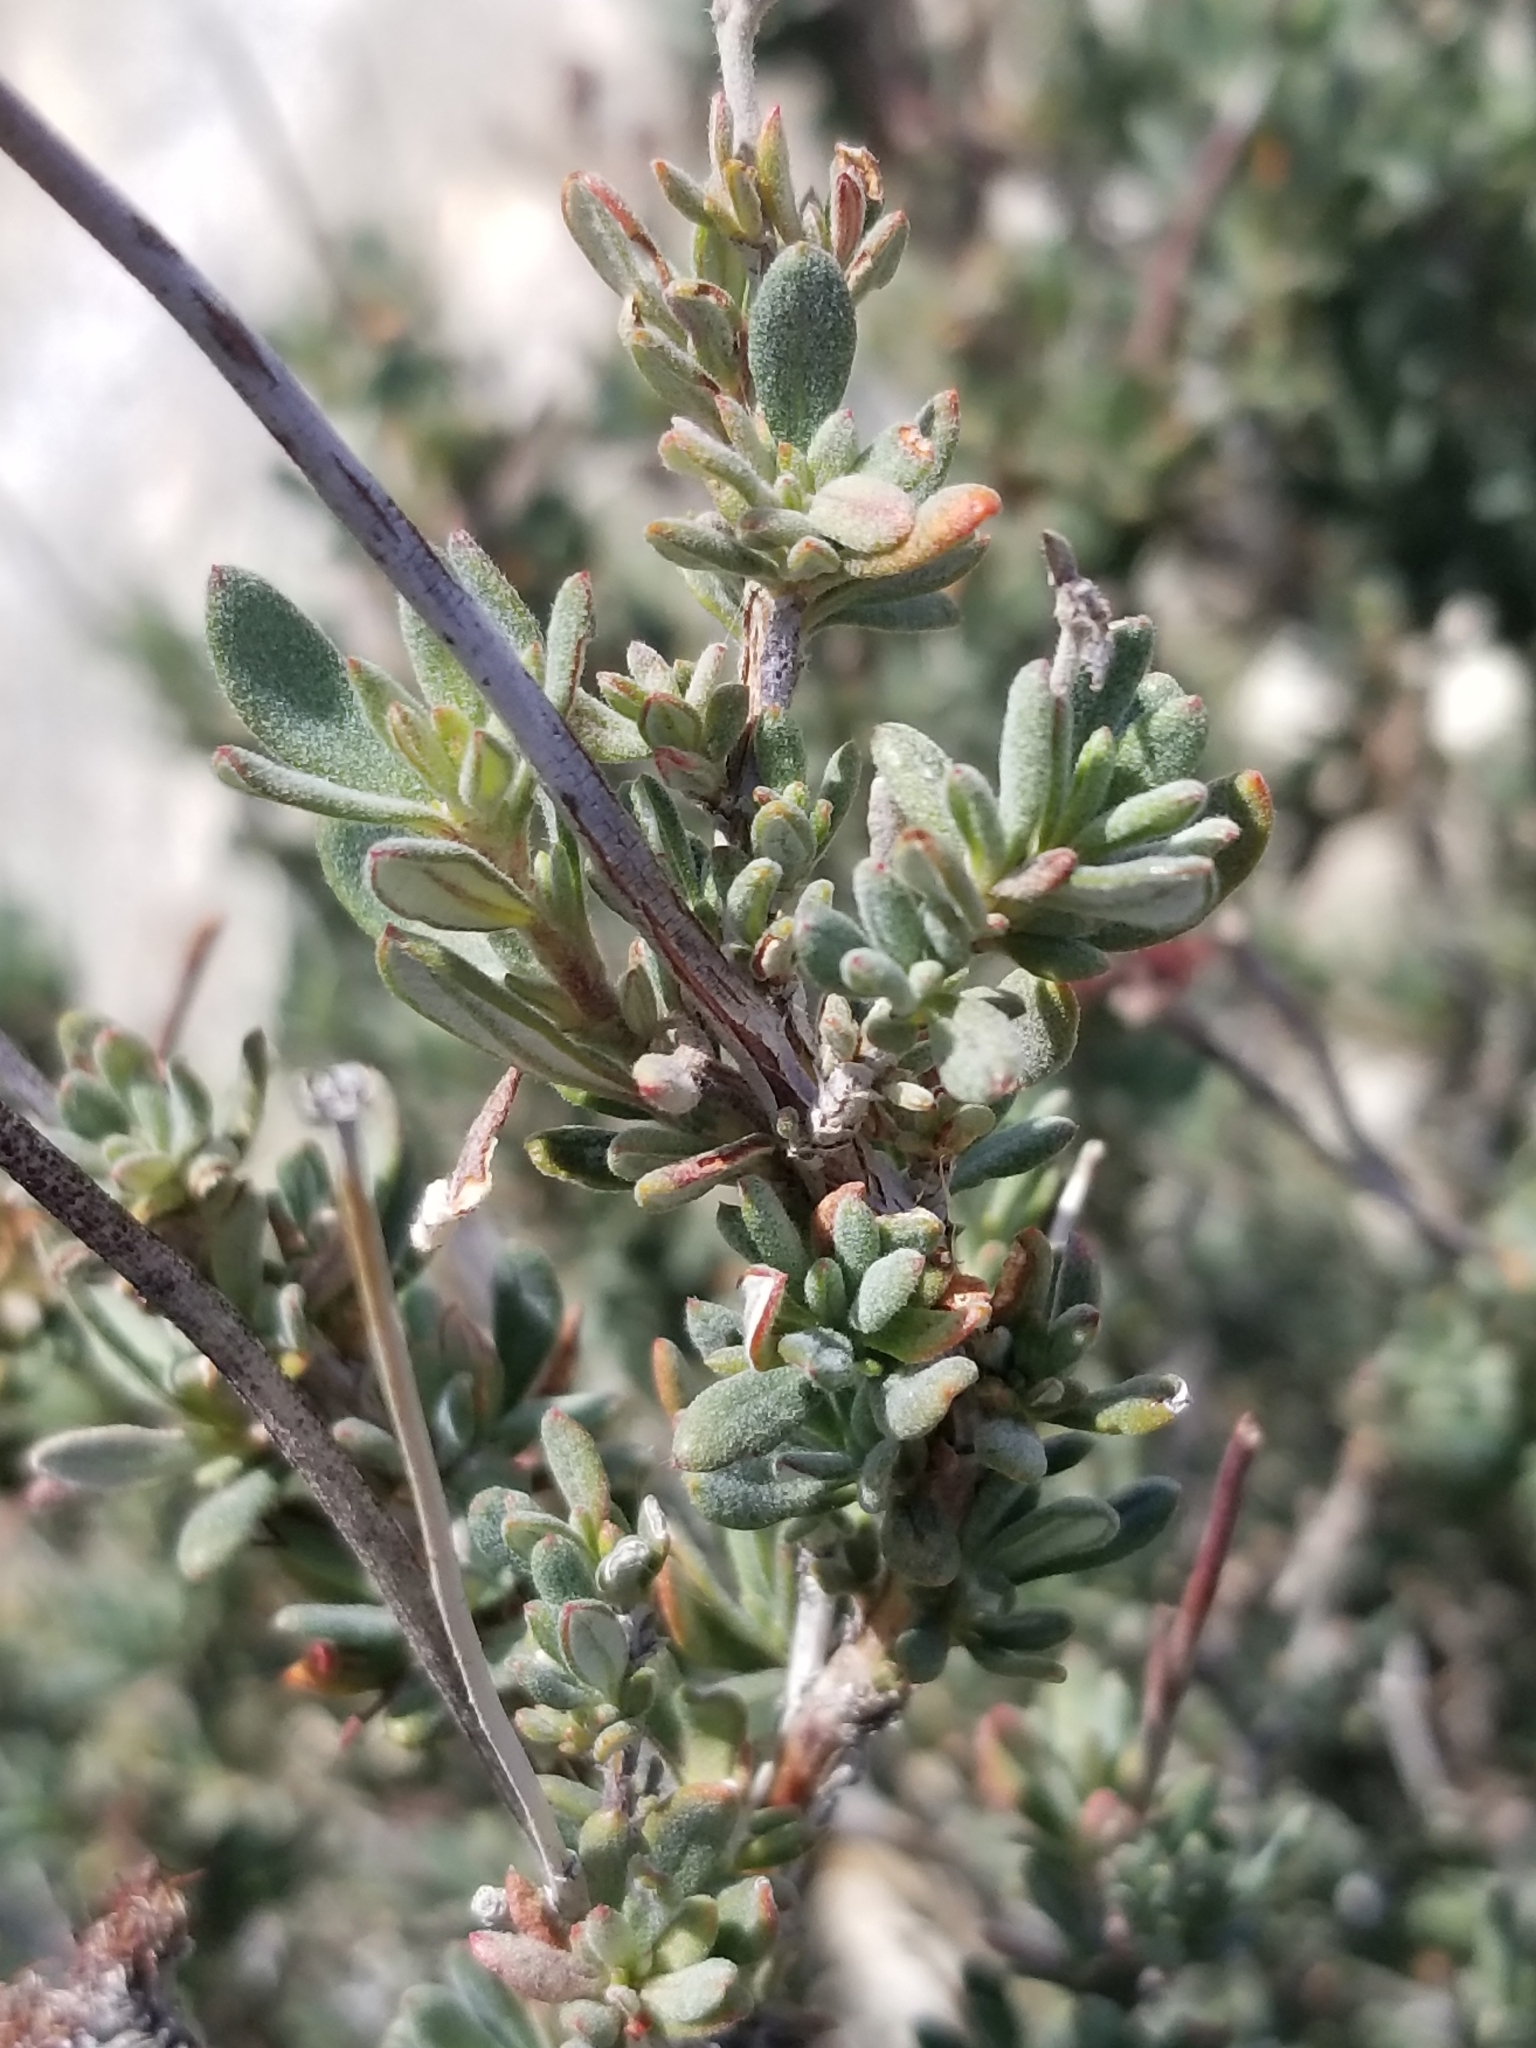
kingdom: Plantae
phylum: Tracheophyta
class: Magnoliopsida
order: Caryophyllales
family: Polygonaceae
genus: Eriogonum
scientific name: Eriogonum fasciculatum
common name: California wild buckwheat
